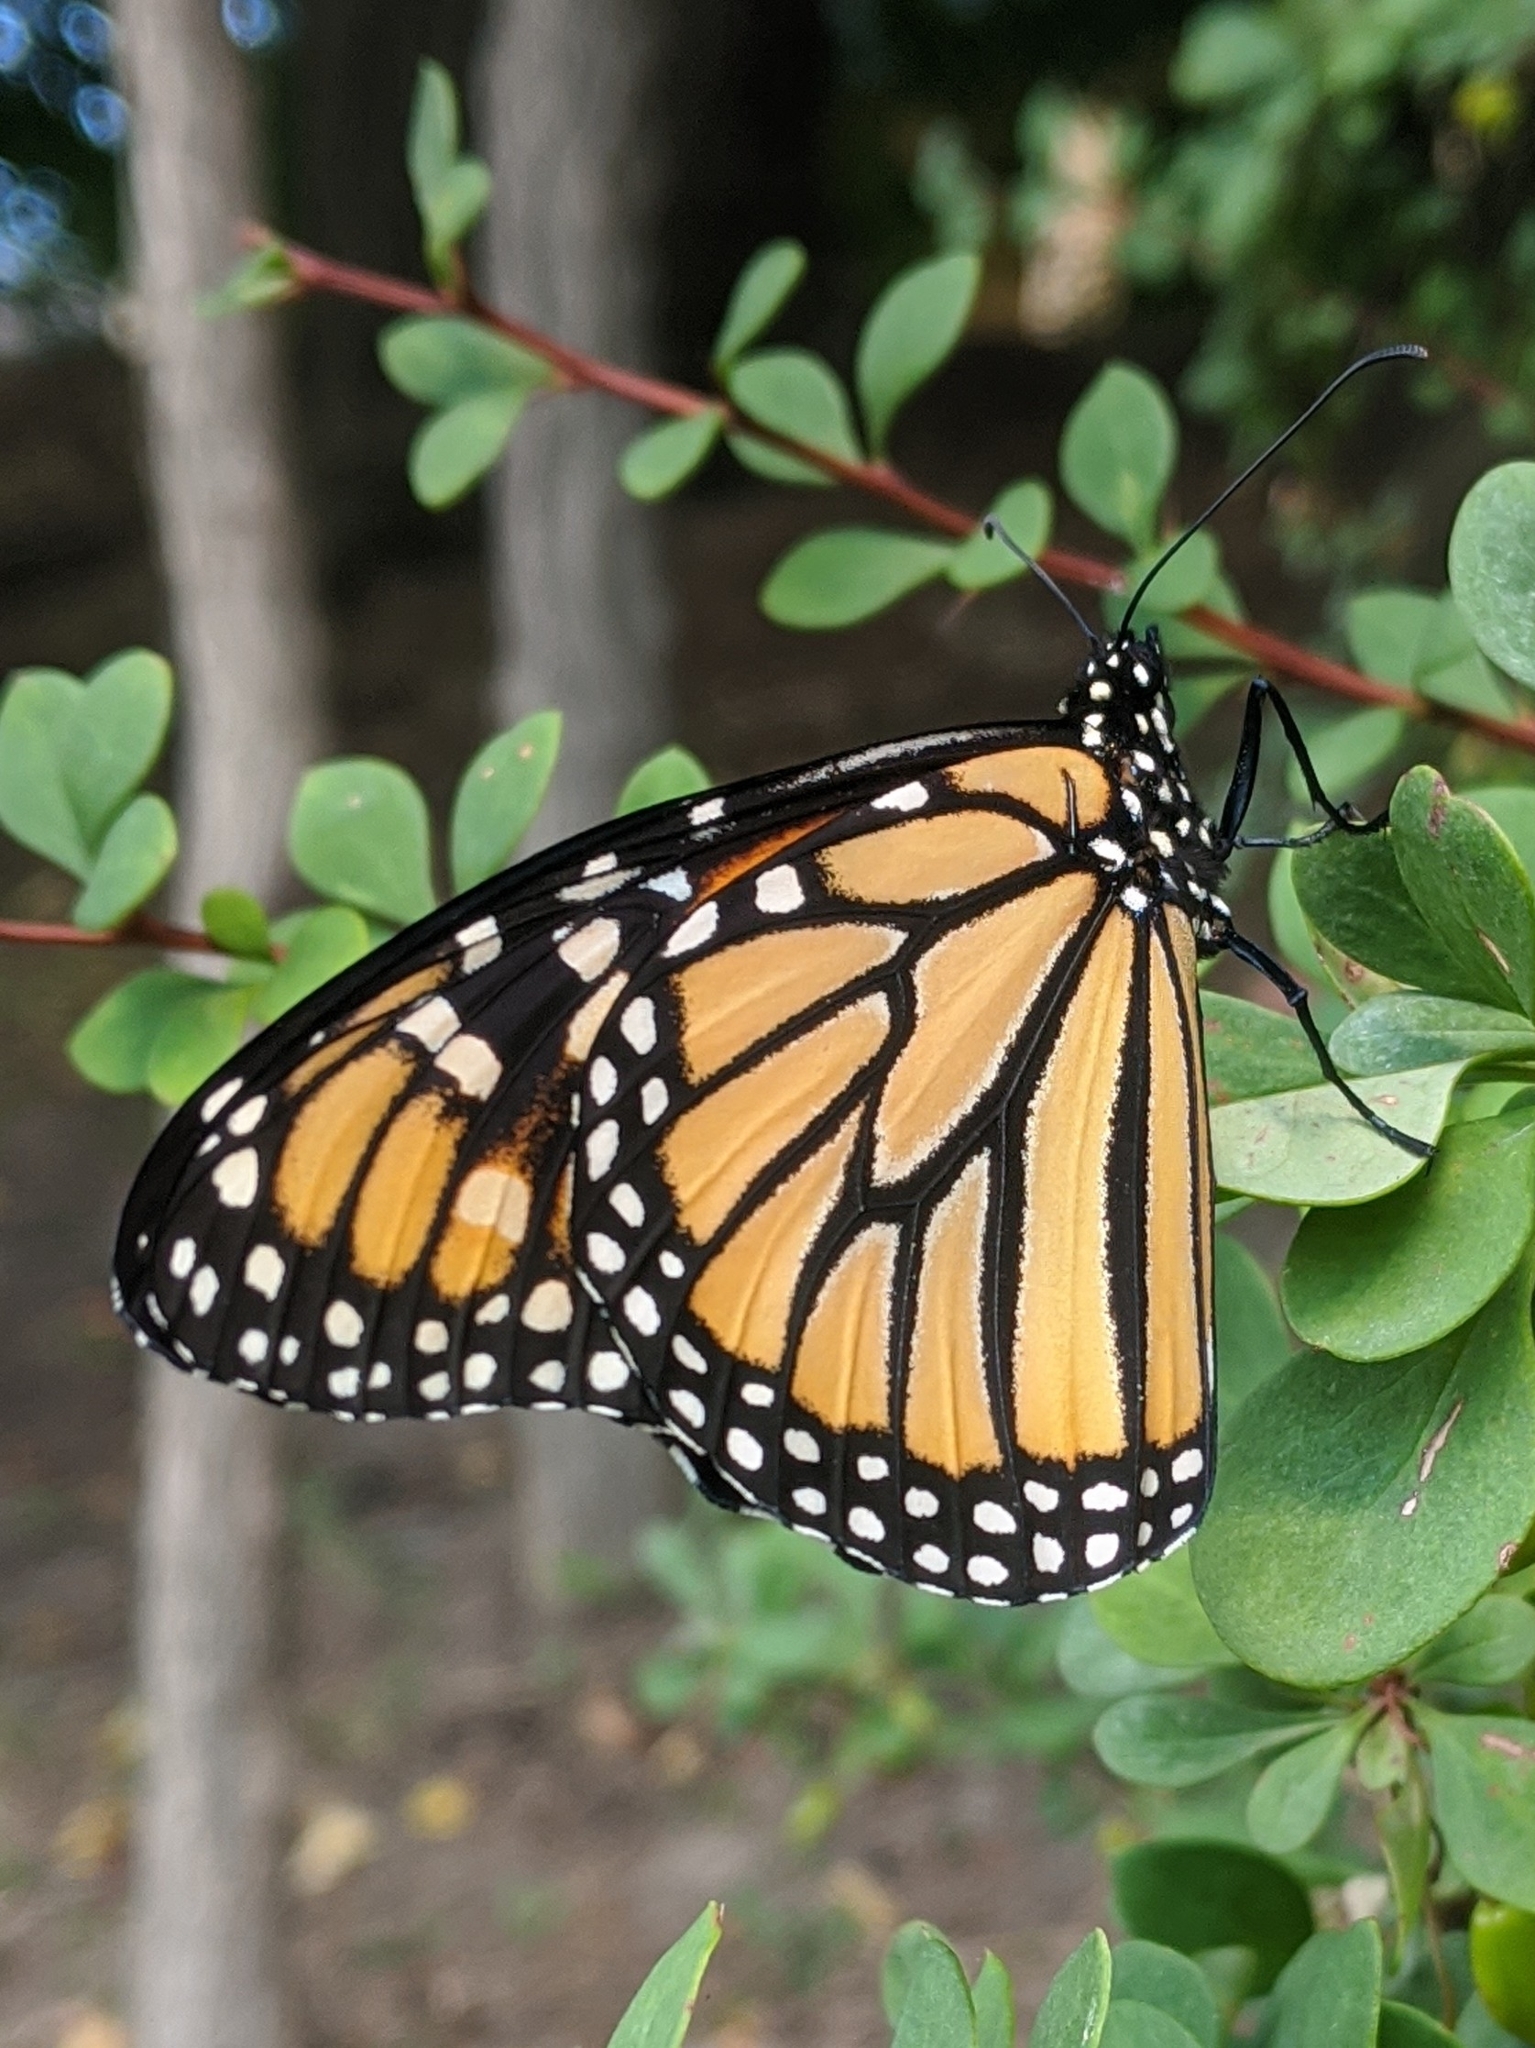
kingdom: Animalia
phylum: Arthropoda
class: Insecta
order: Lepidoptera
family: Nymphalidae
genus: Danaus
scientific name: Danaus plexippus
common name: Monarch
